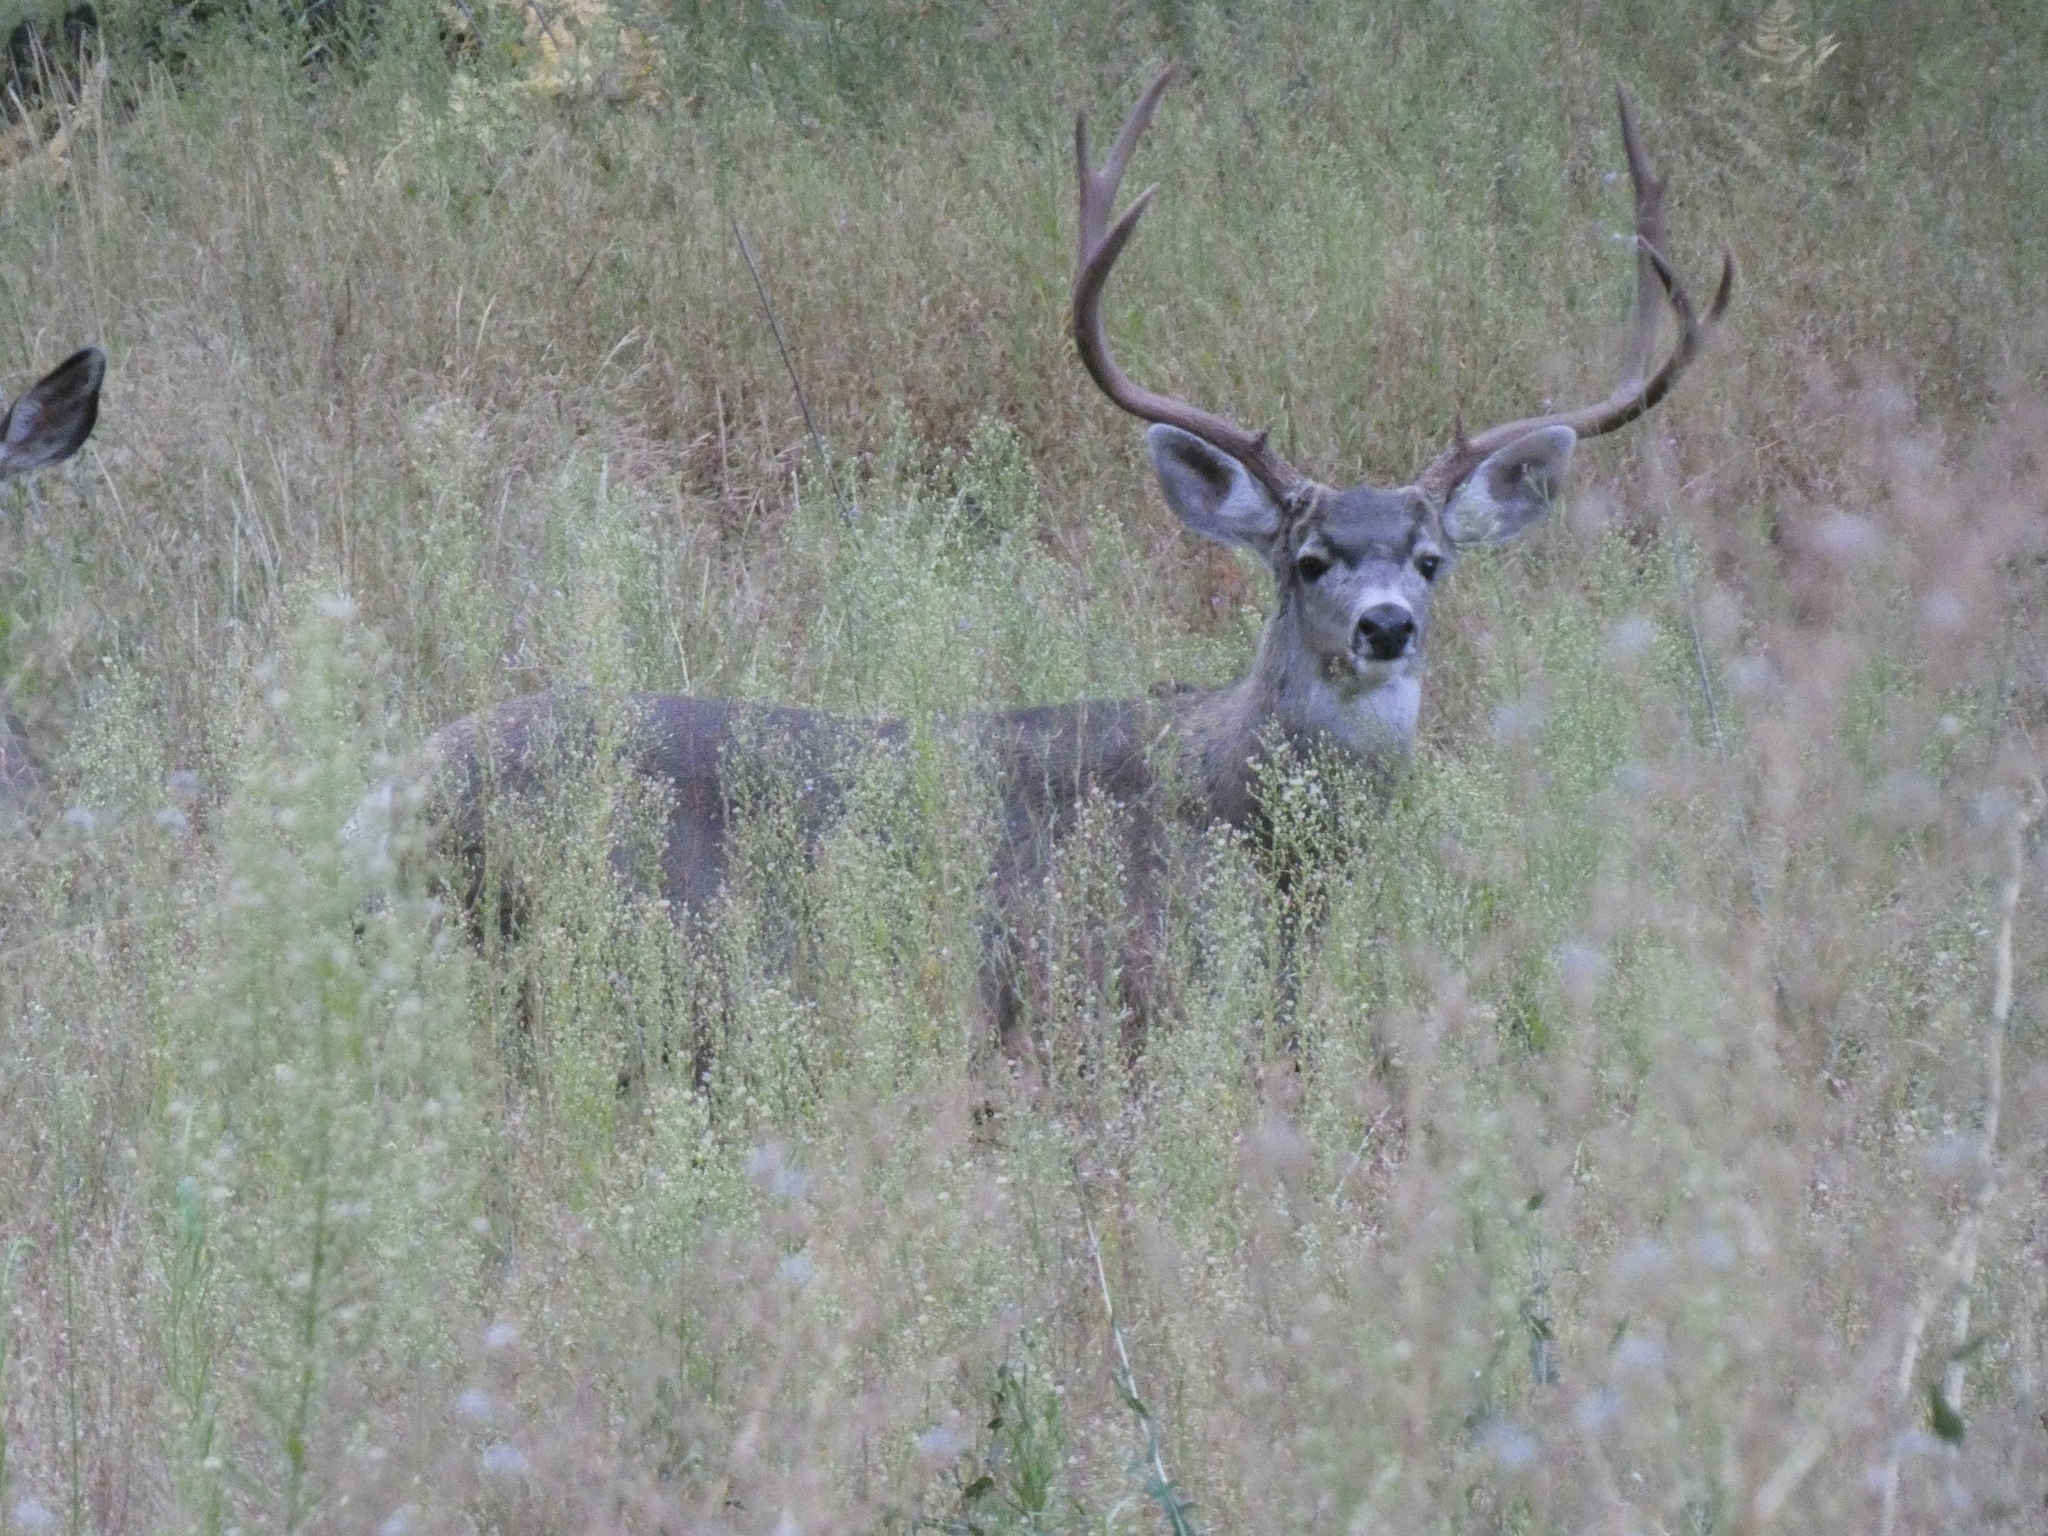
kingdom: Animalia
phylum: Chordata
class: Mammalia
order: Artiodactyla
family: Cervidae
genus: Odocoileus
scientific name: Odocoileus hemionus
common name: Mule deer
